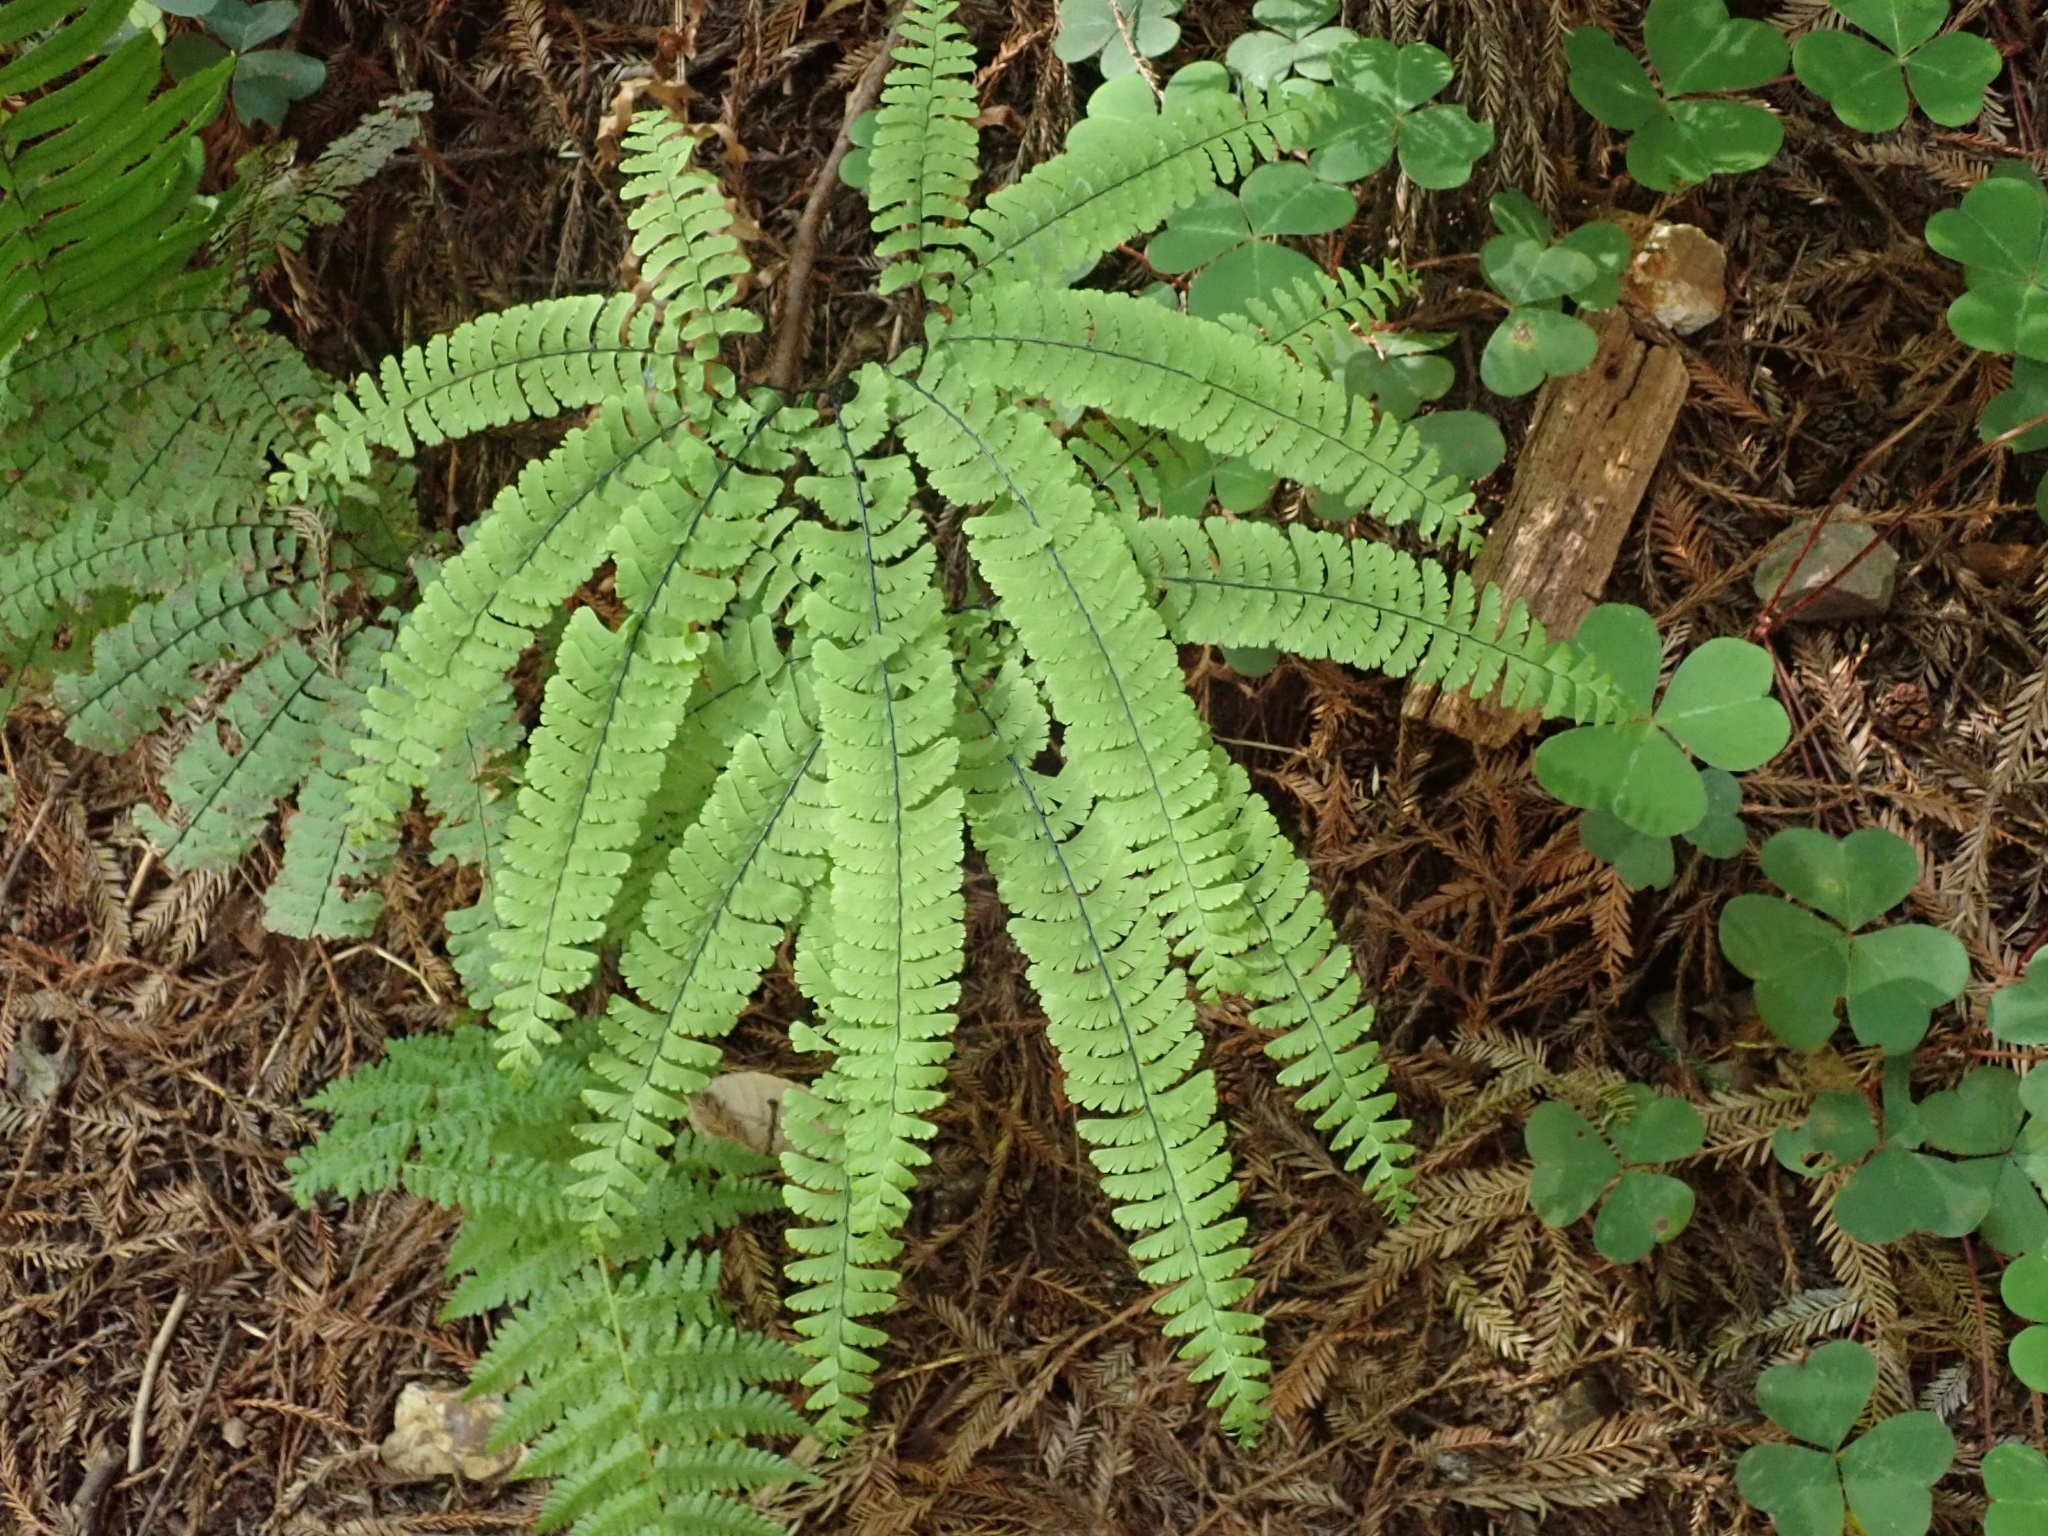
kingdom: Plantae
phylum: Tracheophyta
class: Polypodiopsida
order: Polypodiales
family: Pteridaceae
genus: Adiantum
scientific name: Adiantum aleuticum
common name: Aleutian maidenhair fern
